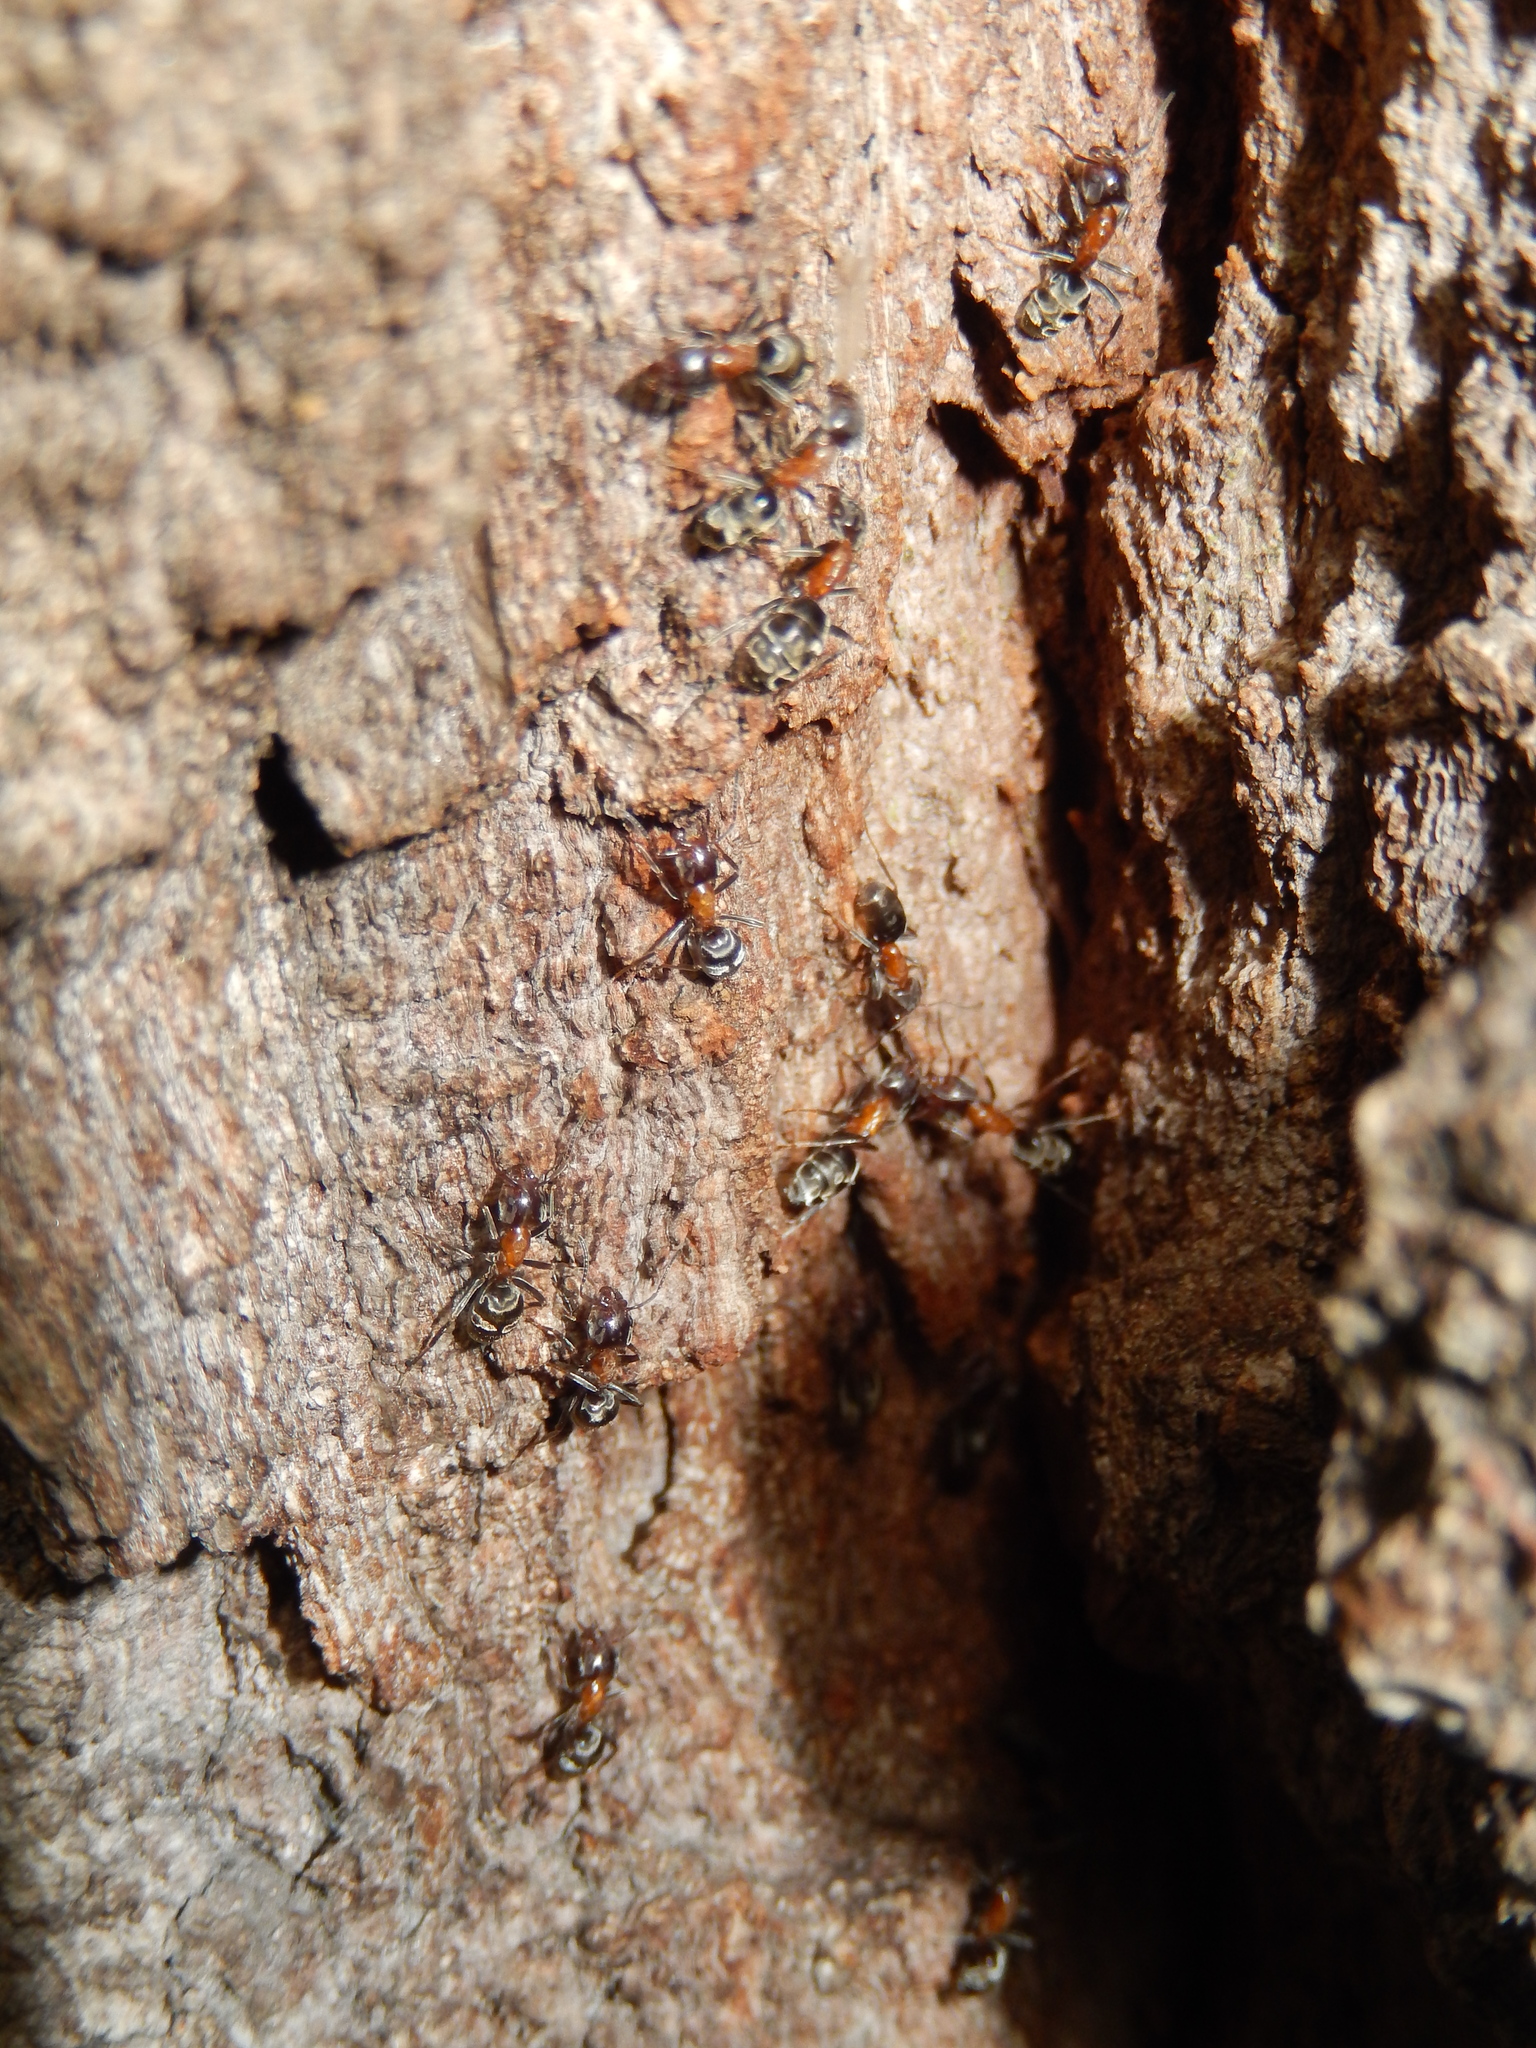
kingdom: Animalia
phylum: Arthropoda
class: Insecta
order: Hymenoptera
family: Formicidae
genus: Liometopum
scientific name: Liometopum microcephalum
